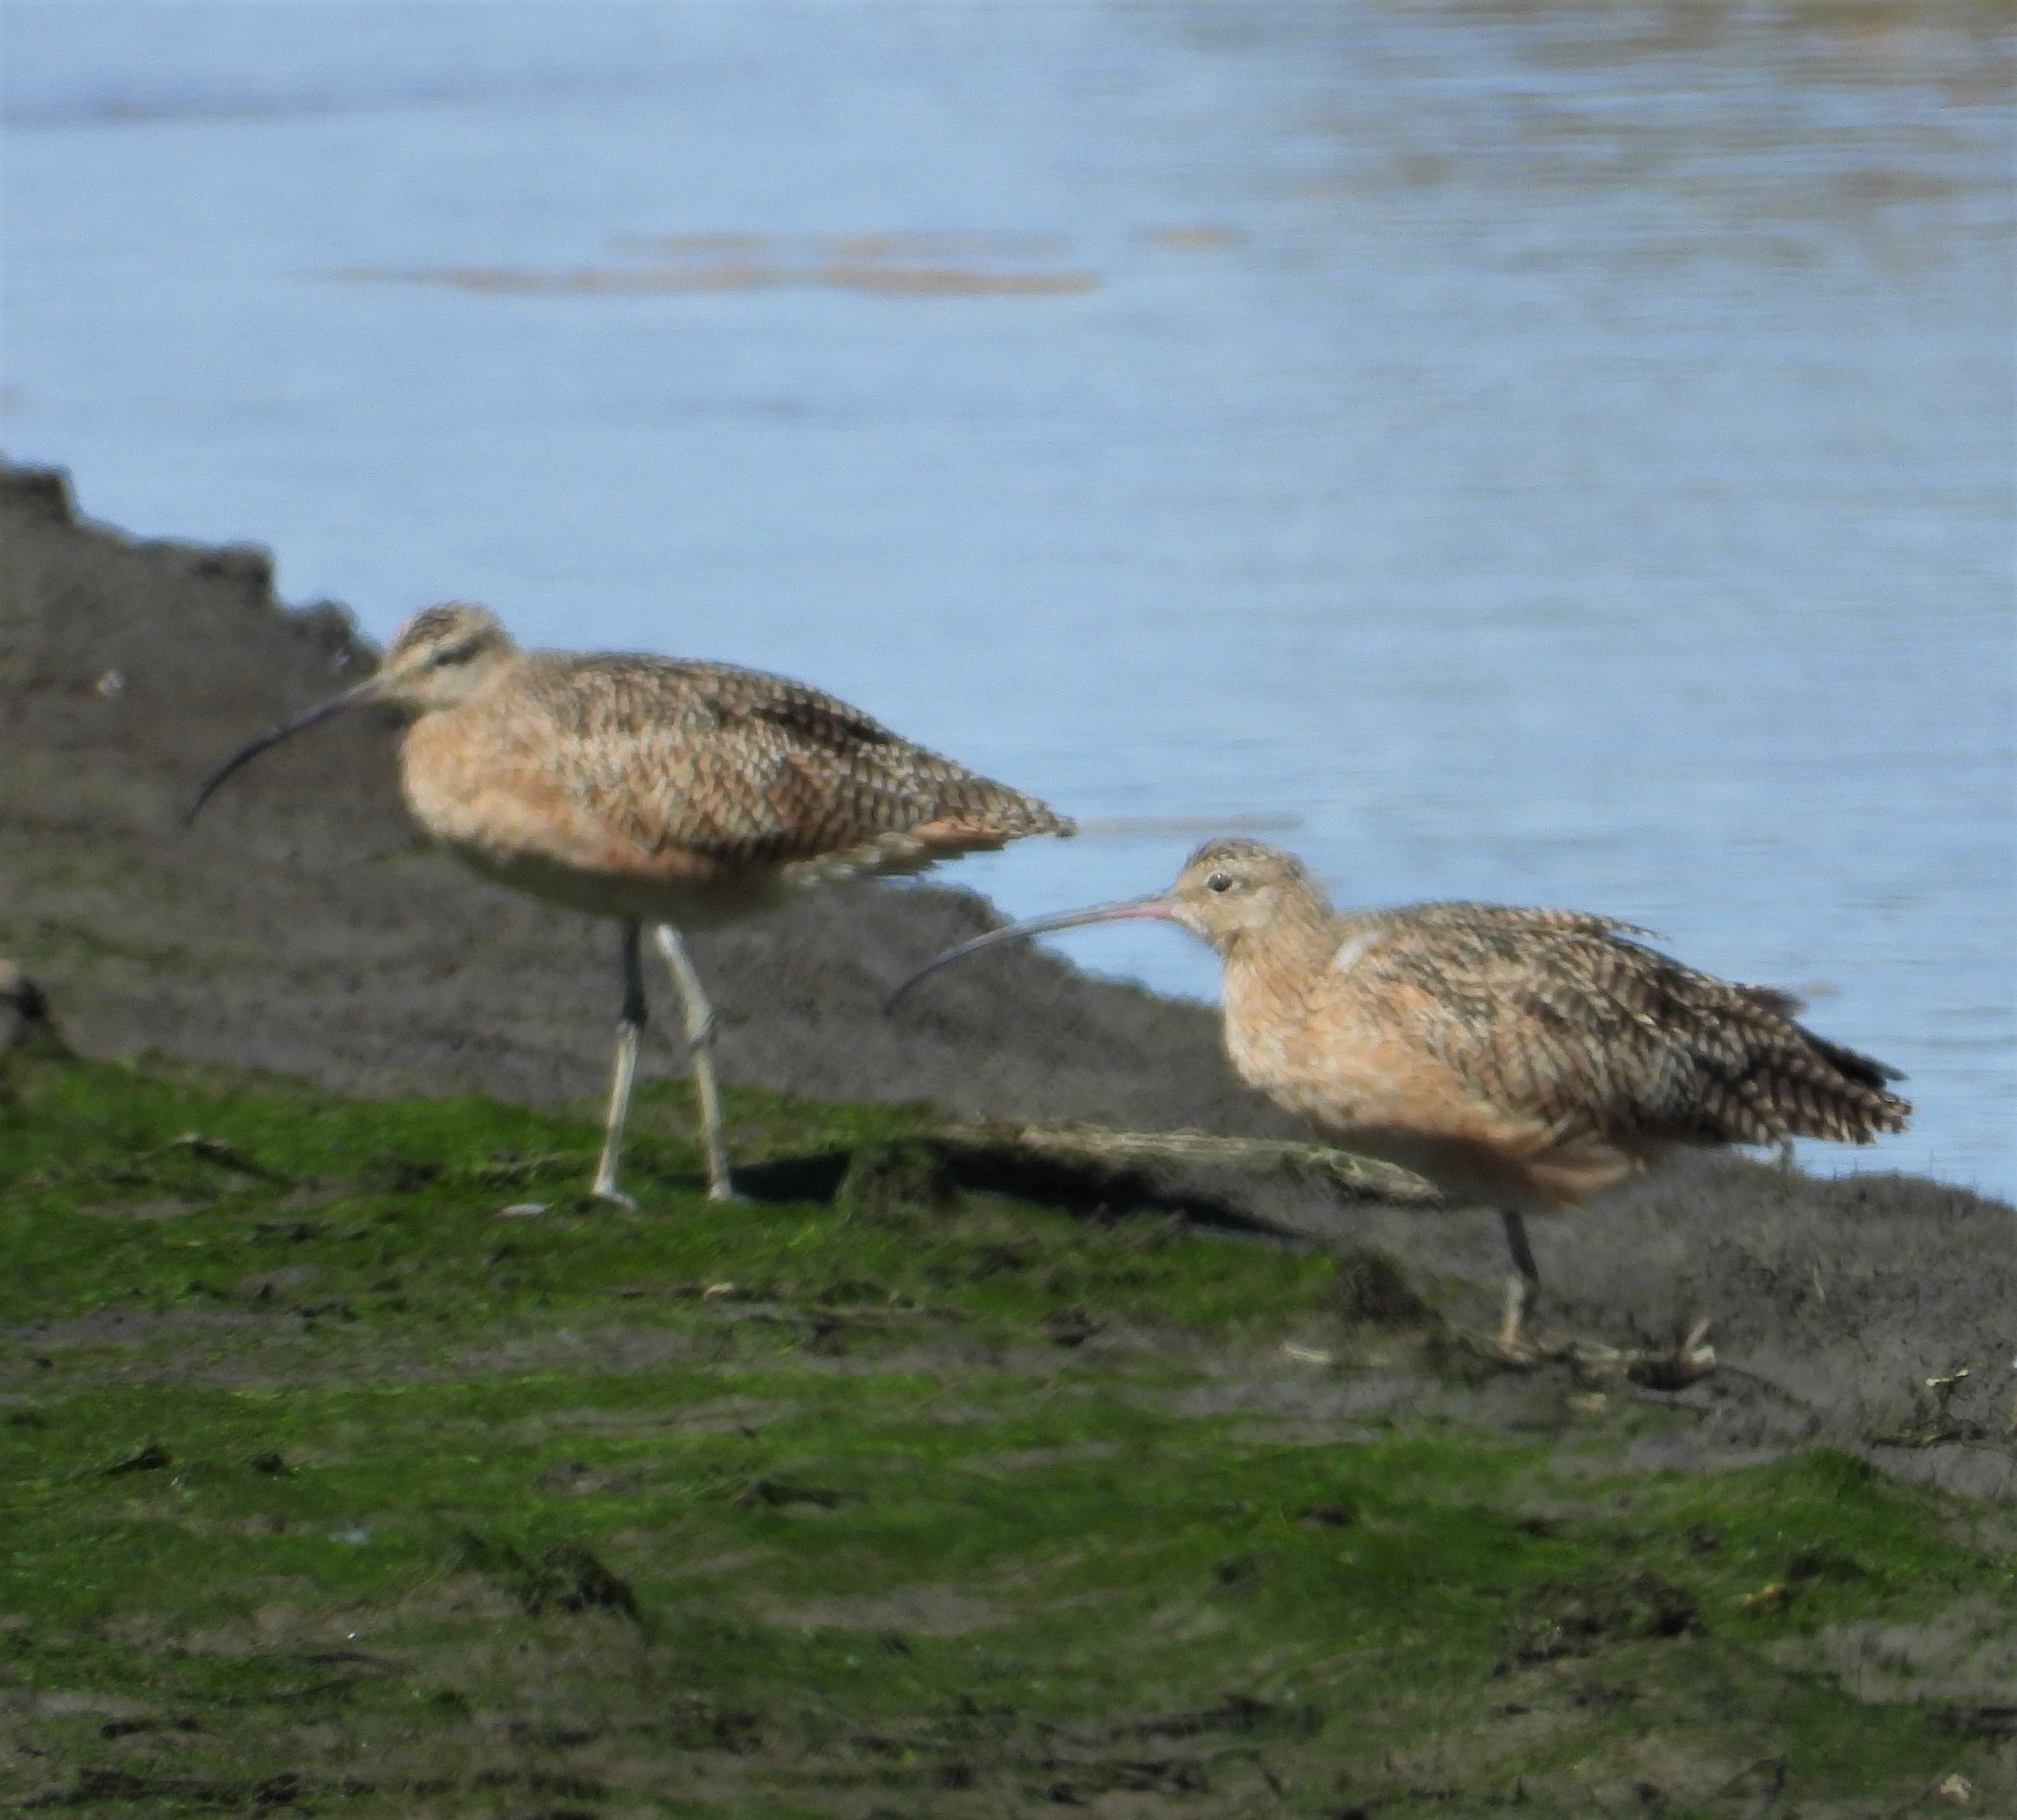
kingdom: Animalia
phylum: Chordata
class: Aves
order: Charadriiformes
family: Scolopacidae
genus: Numenius
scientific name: Numenius americanus
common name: Long-billed curlew
